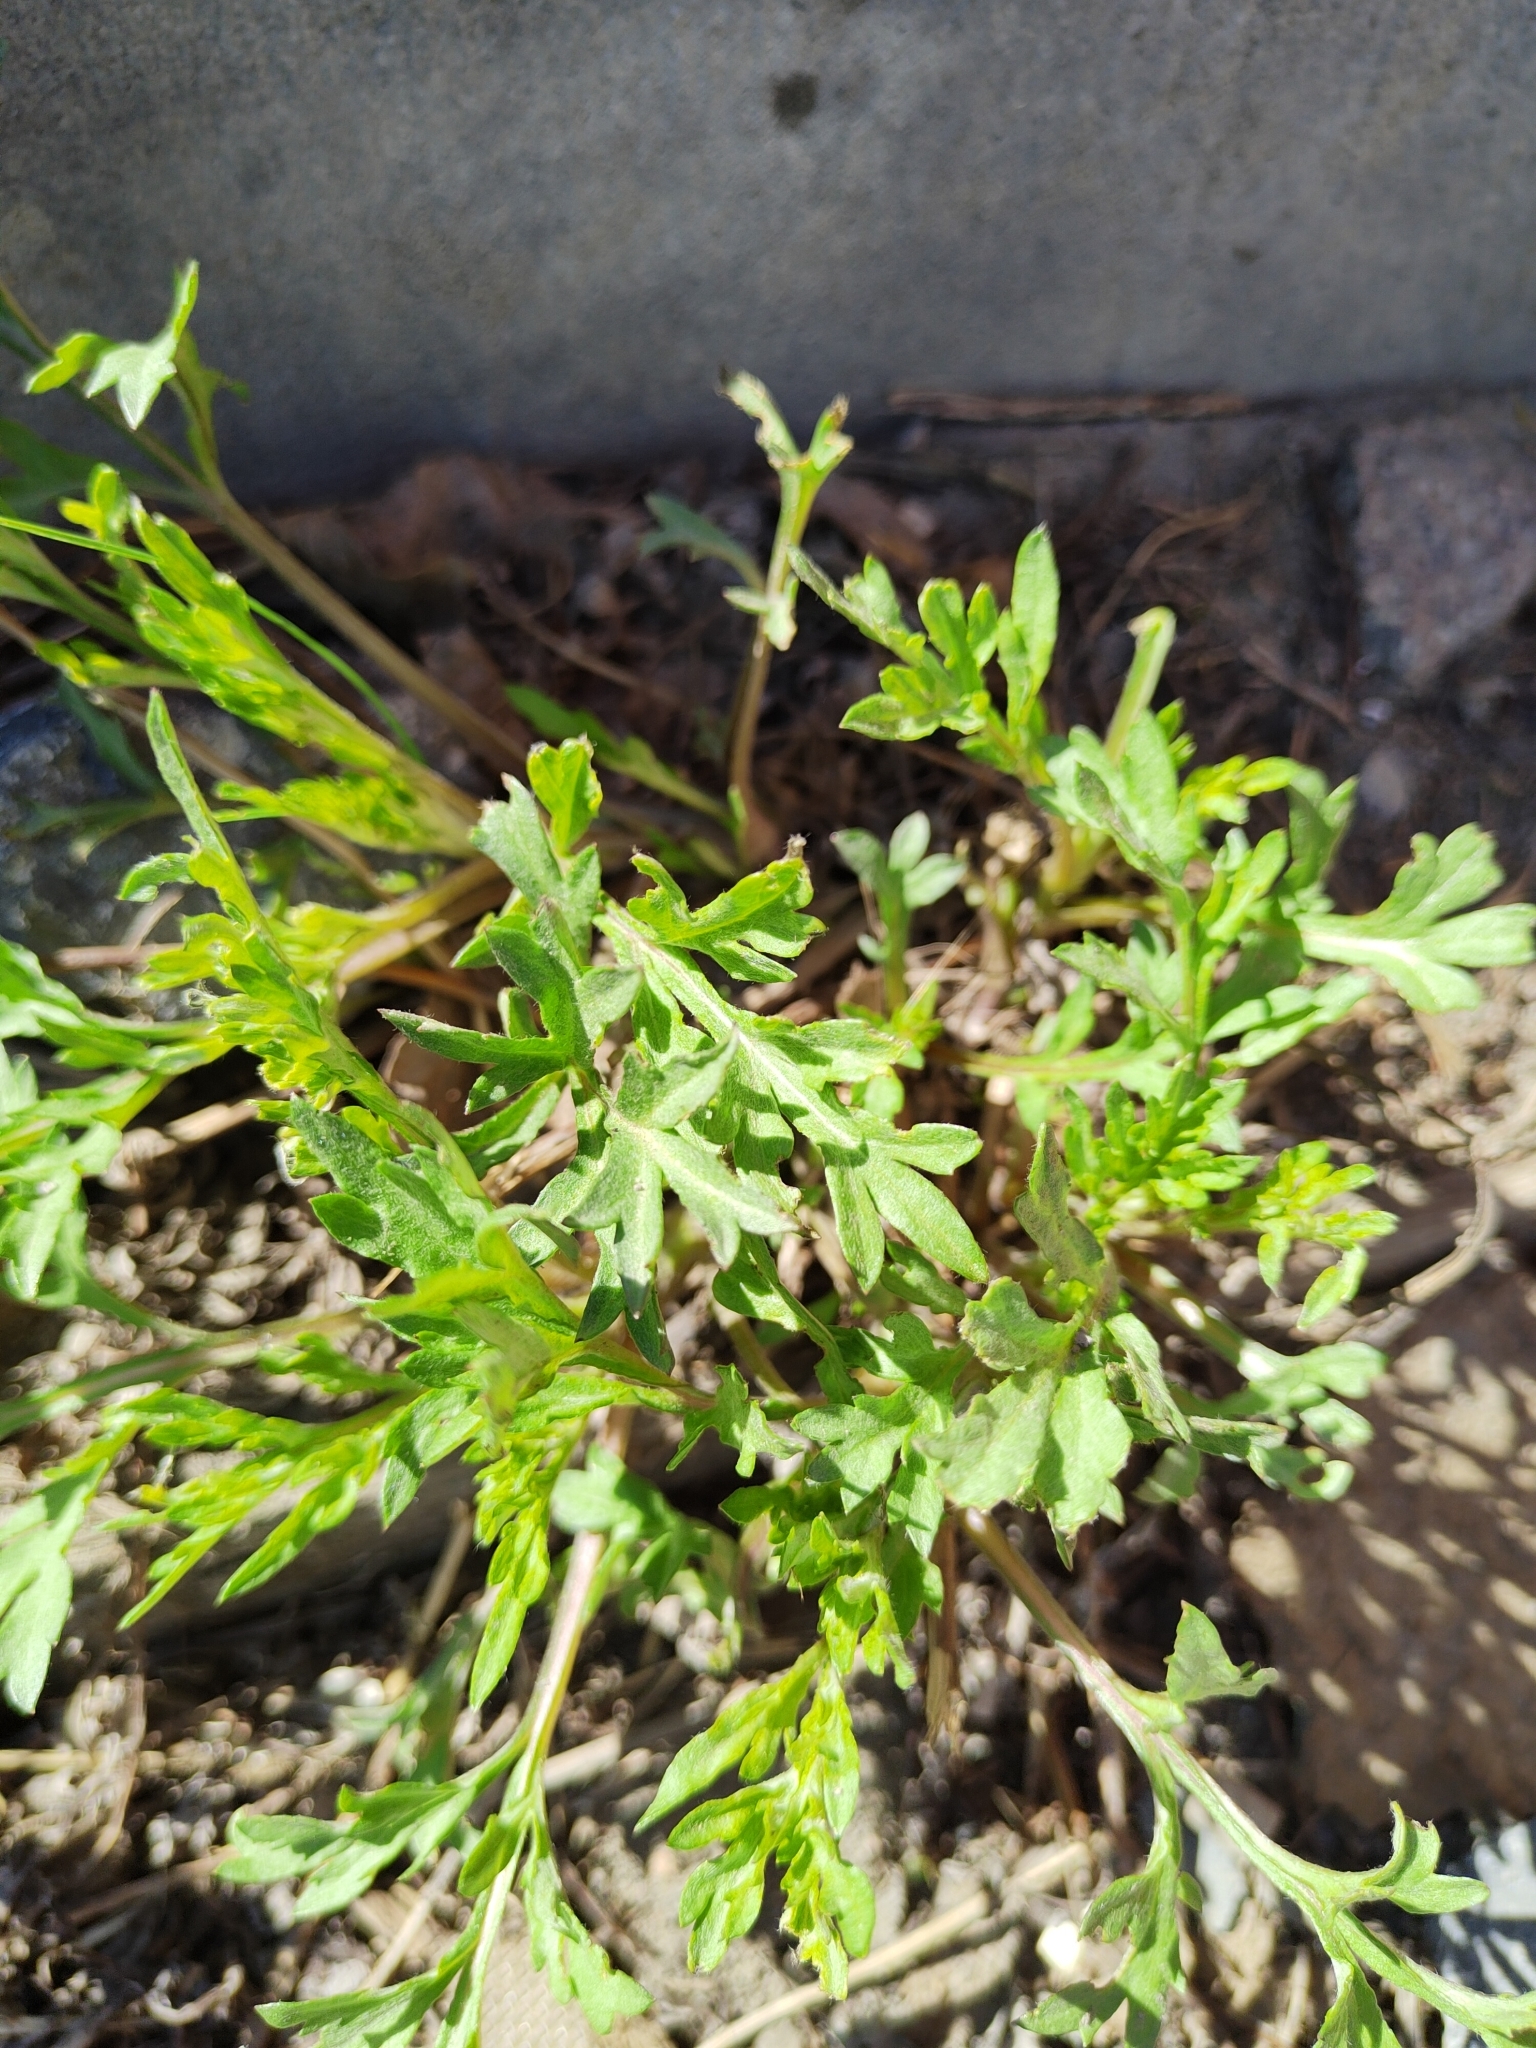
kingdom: Plantae
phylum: Tracheophyta
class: Magnoliopsida
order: Asterales
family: Asteraceae
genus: Artemisia
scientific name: Artemisia vulgaris
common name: Mugwort
